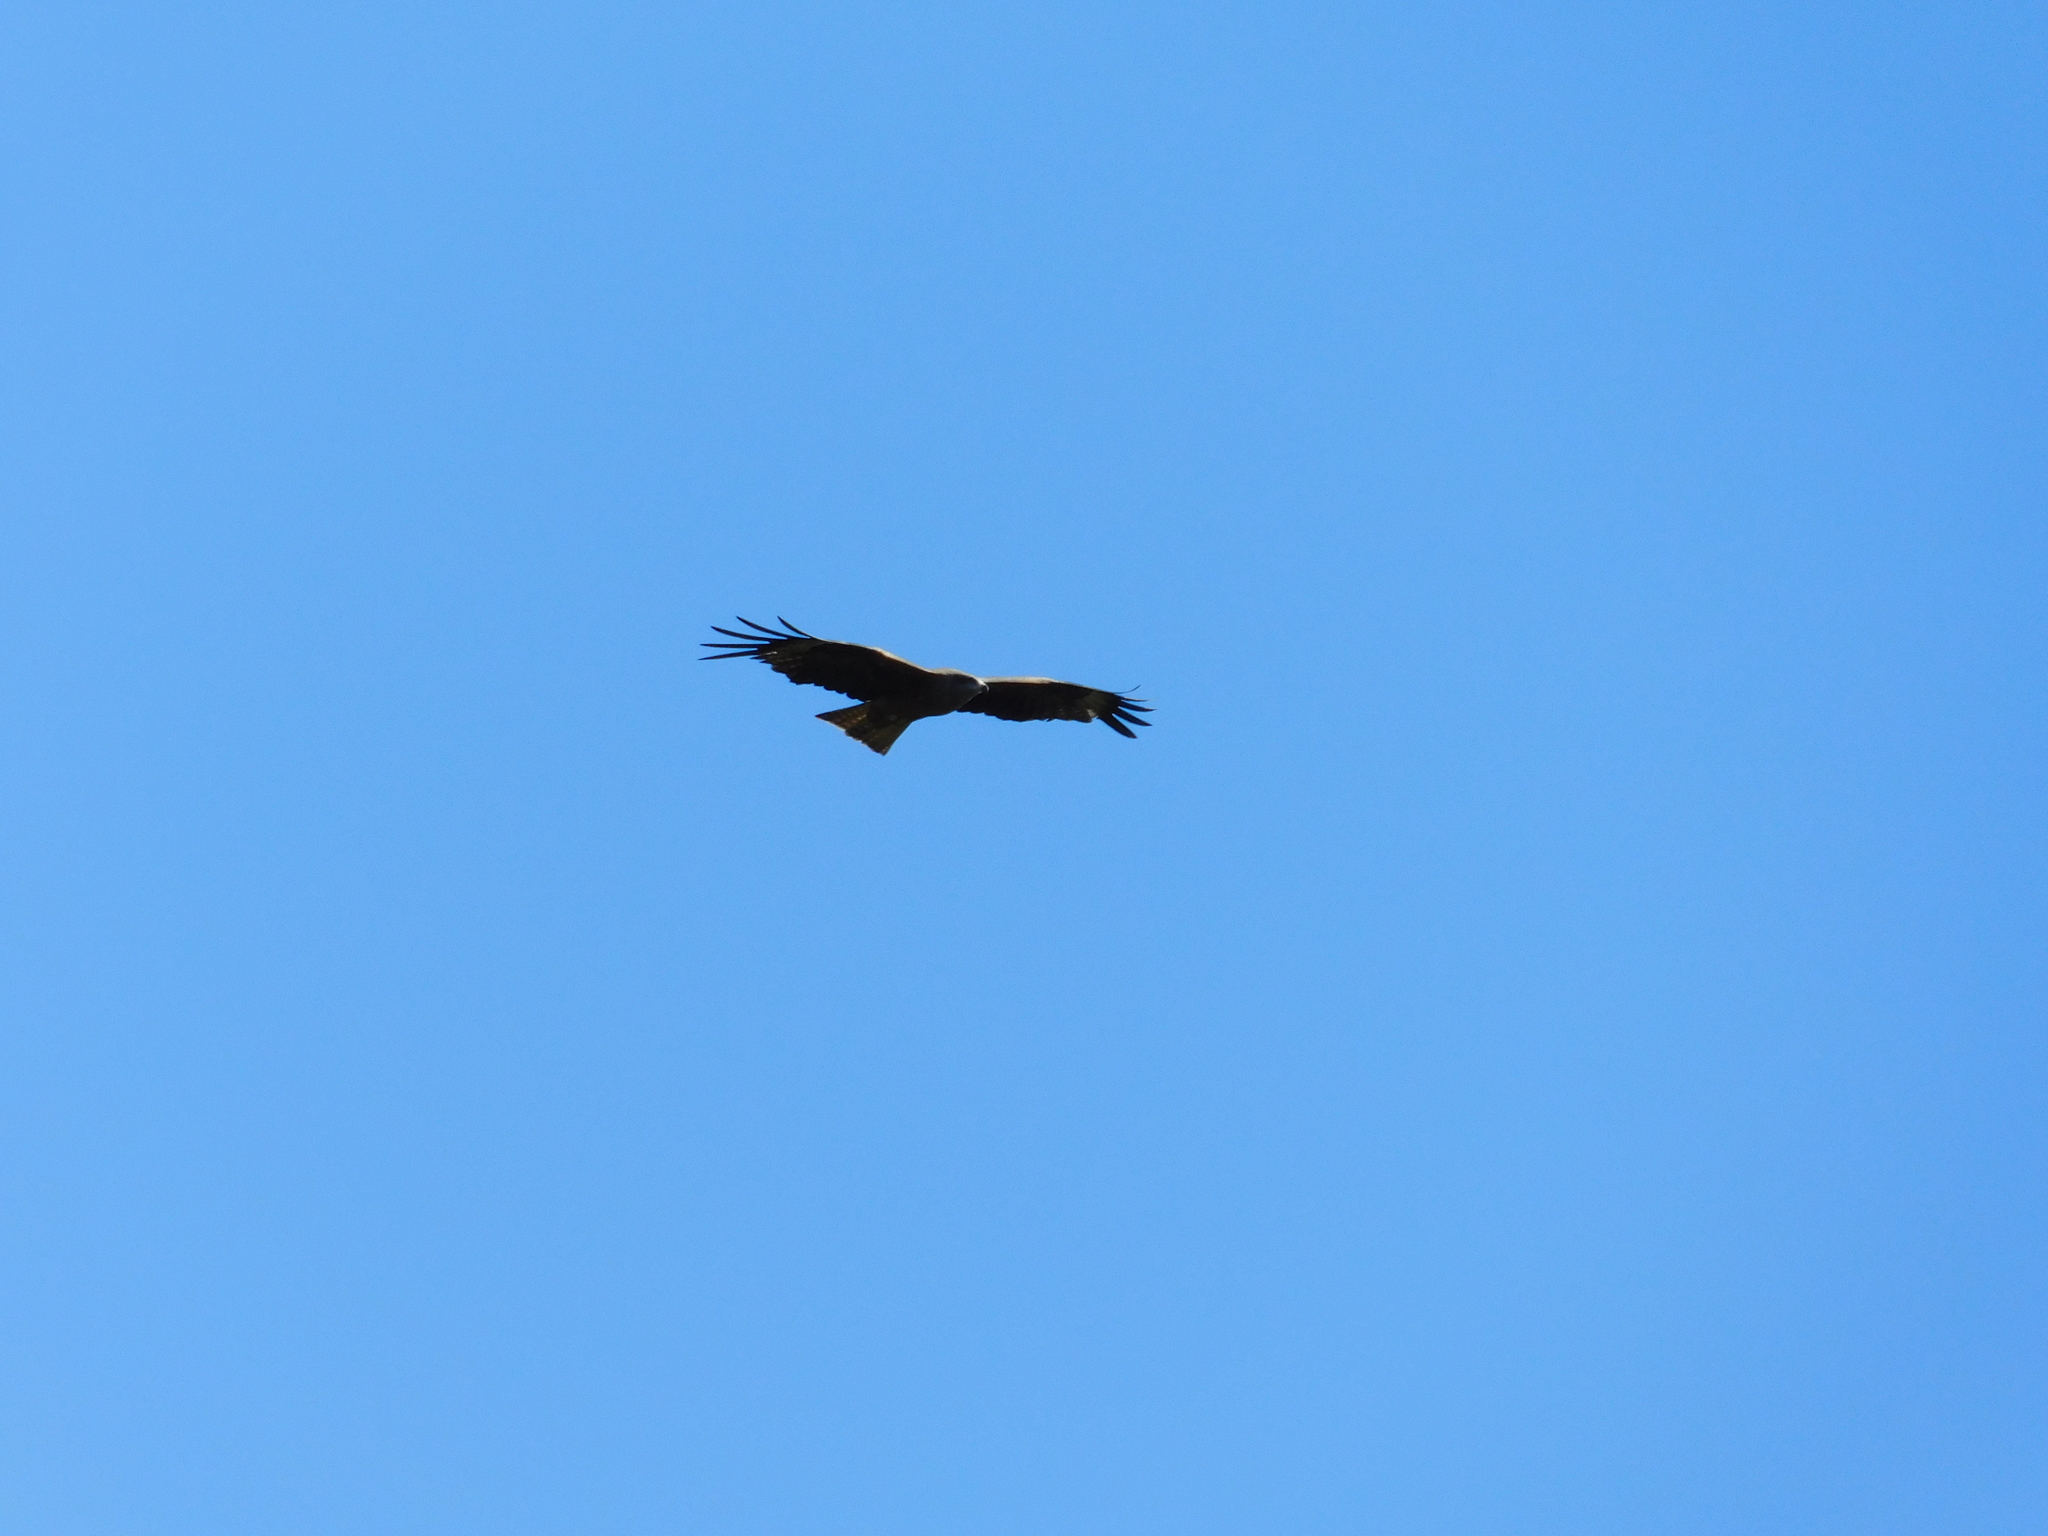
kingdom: Animalia
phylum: Chordata
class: Aves
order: Accipitriformes
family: Accipitridae
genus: Milvus
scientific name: Milvus migrans
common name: Black kite
